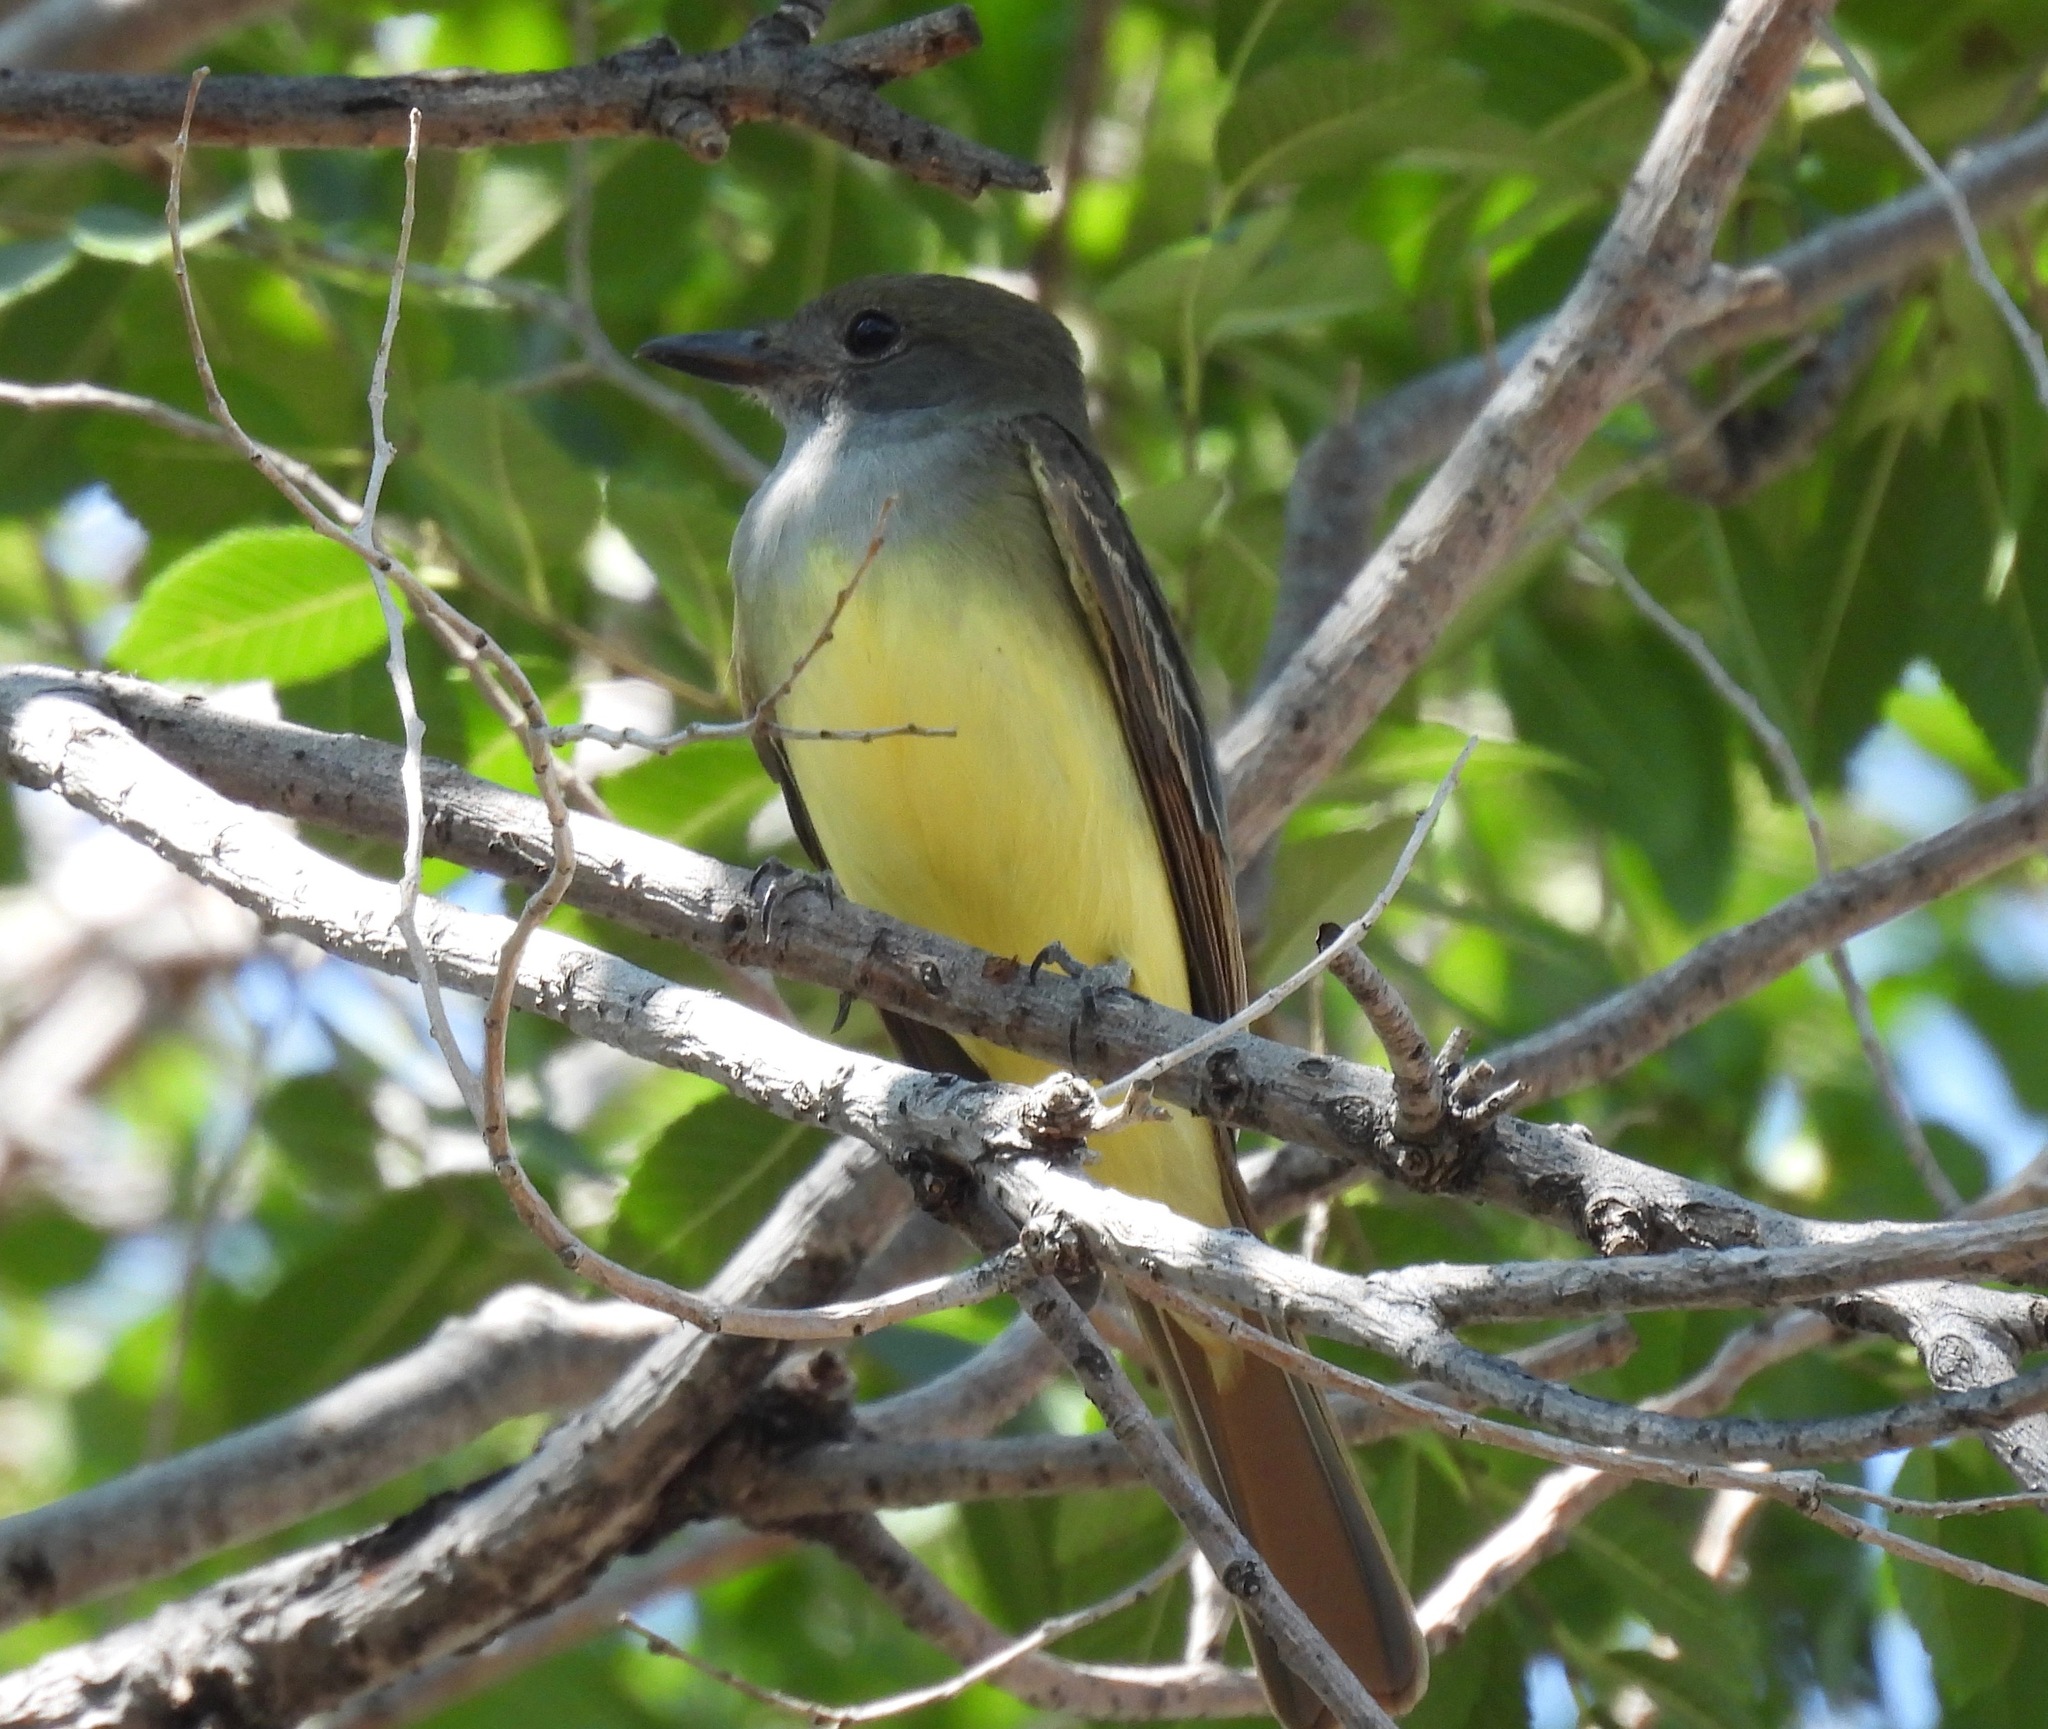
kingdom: Animalia
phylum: Chordata
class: Aves
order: Passeriformes
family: Tyrannidae
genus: Myiarchus
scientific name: Myiarchus crinitus
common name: Great crested flycatcher
